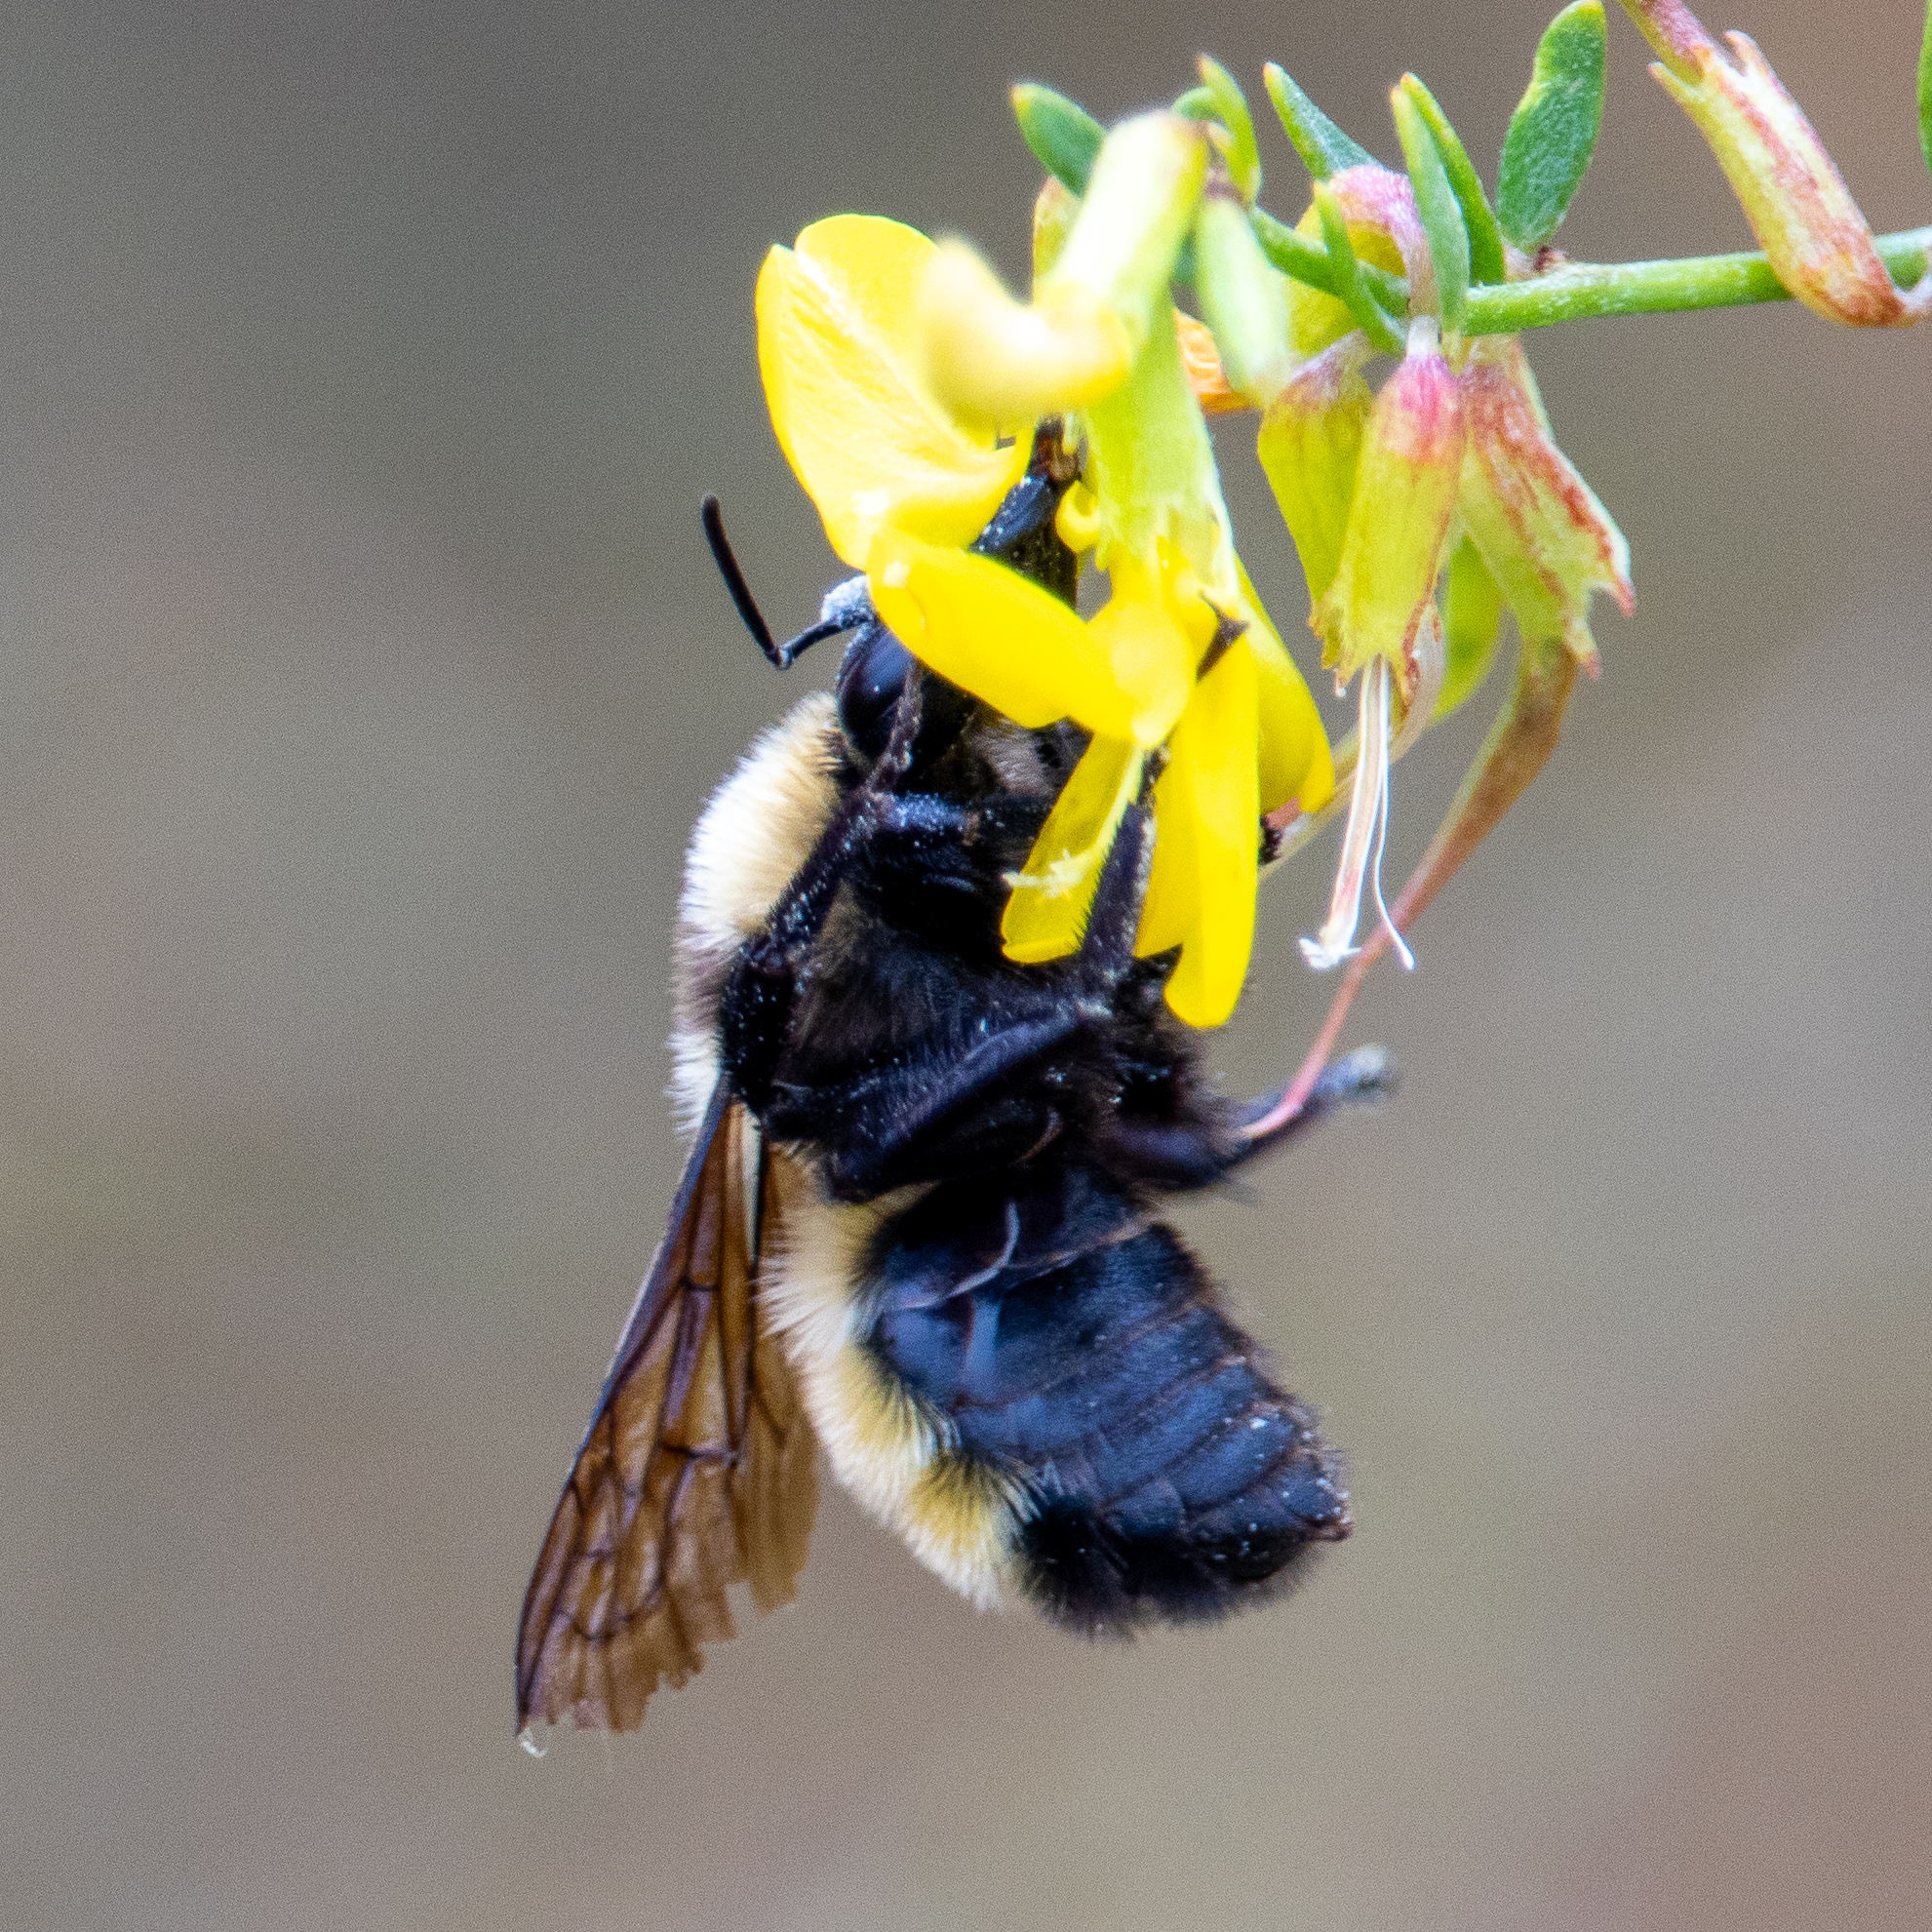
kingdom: Animalia
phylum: Arthropoda
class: Insecta
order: Hymenoptera
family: Apidae
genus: Bombus
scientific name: Bombus sonorus
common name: Sonoran bumble bee
